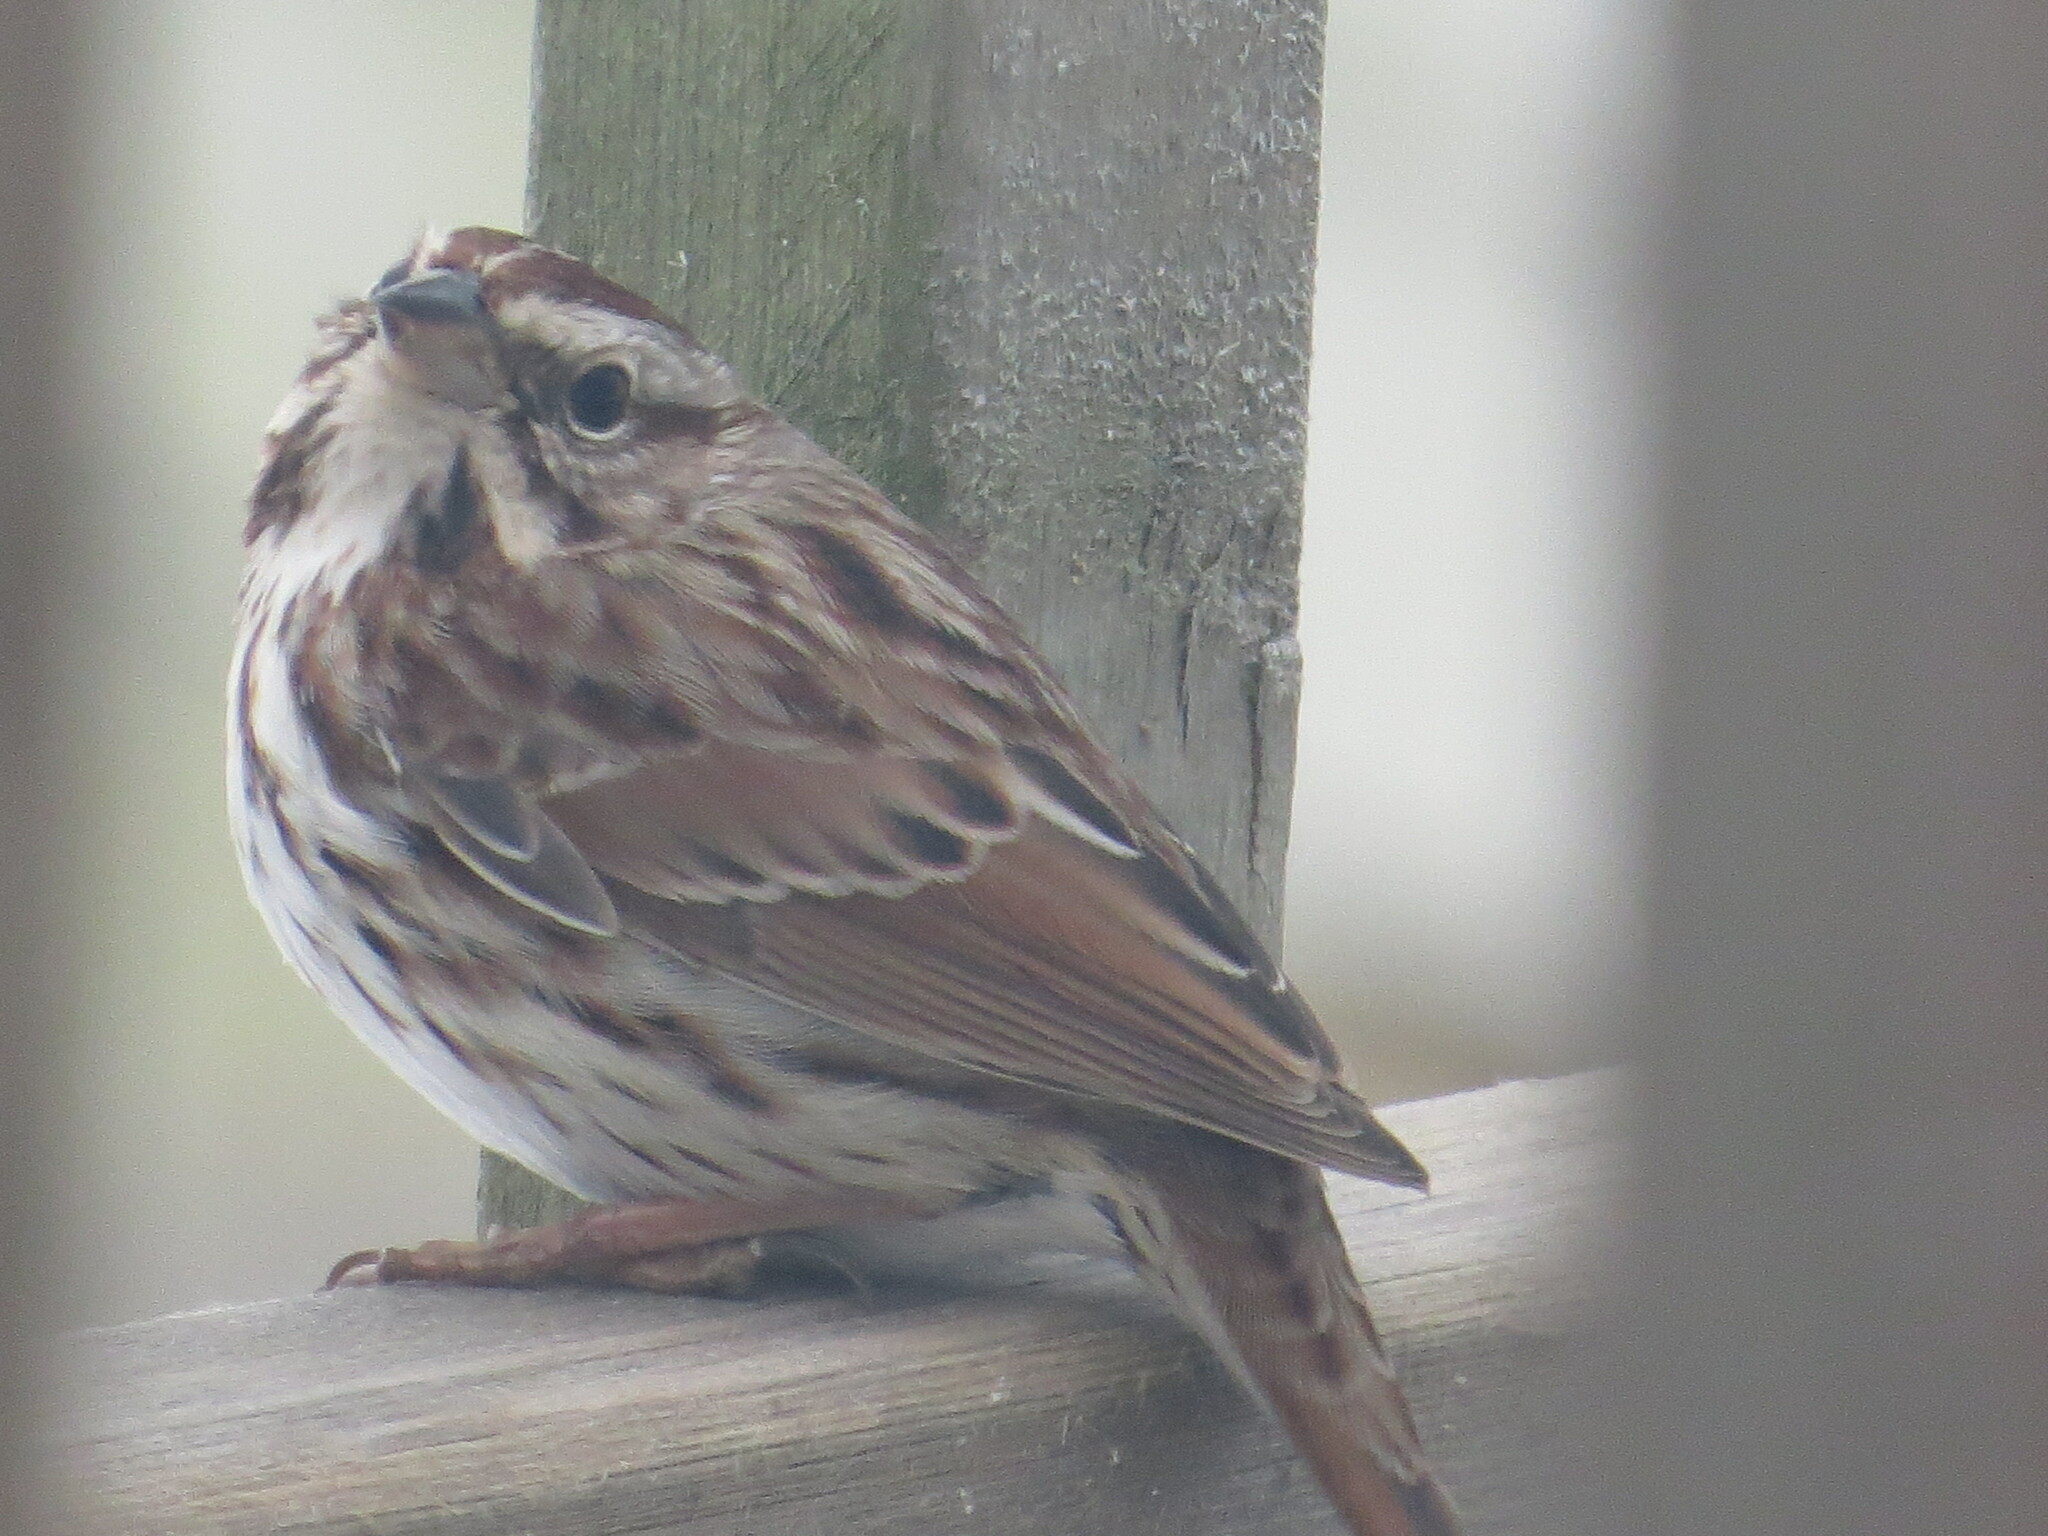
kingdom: Animalia
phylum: Chordata
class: Aves
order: Passeriformes
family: Passerellidae
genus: Melospiza
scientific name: Melospiza melodia
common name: Song sparrow
